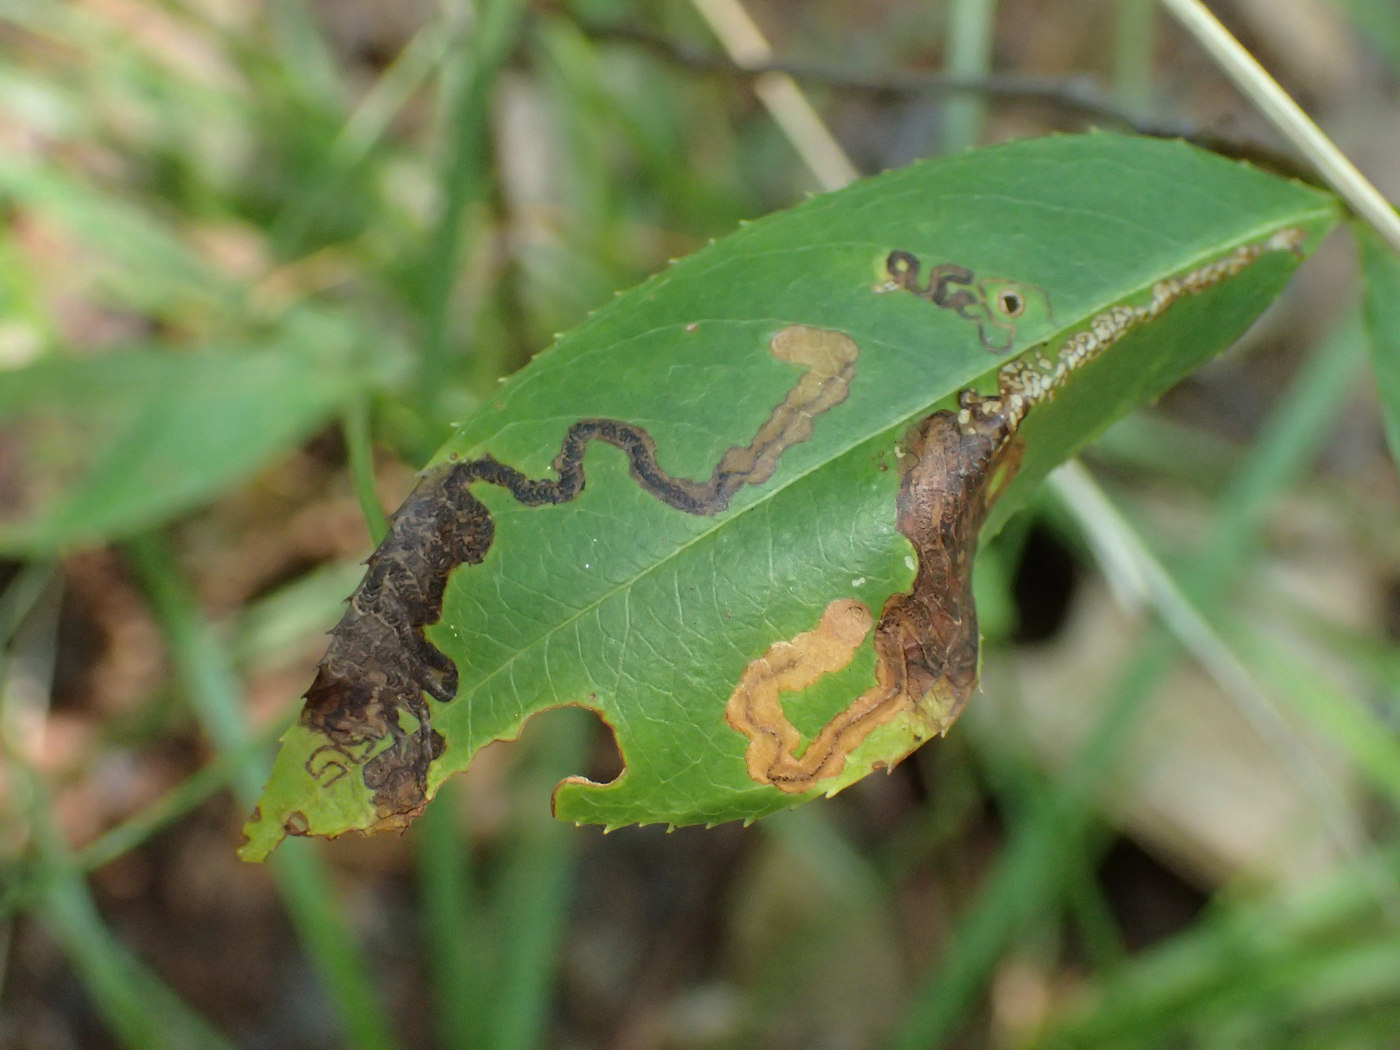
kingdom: Animalia
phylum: Arthropoda
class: Insecta
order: Lepidoptera
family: Nepticulidae
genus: Stigmella
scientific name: Stigmella prunifoliella
